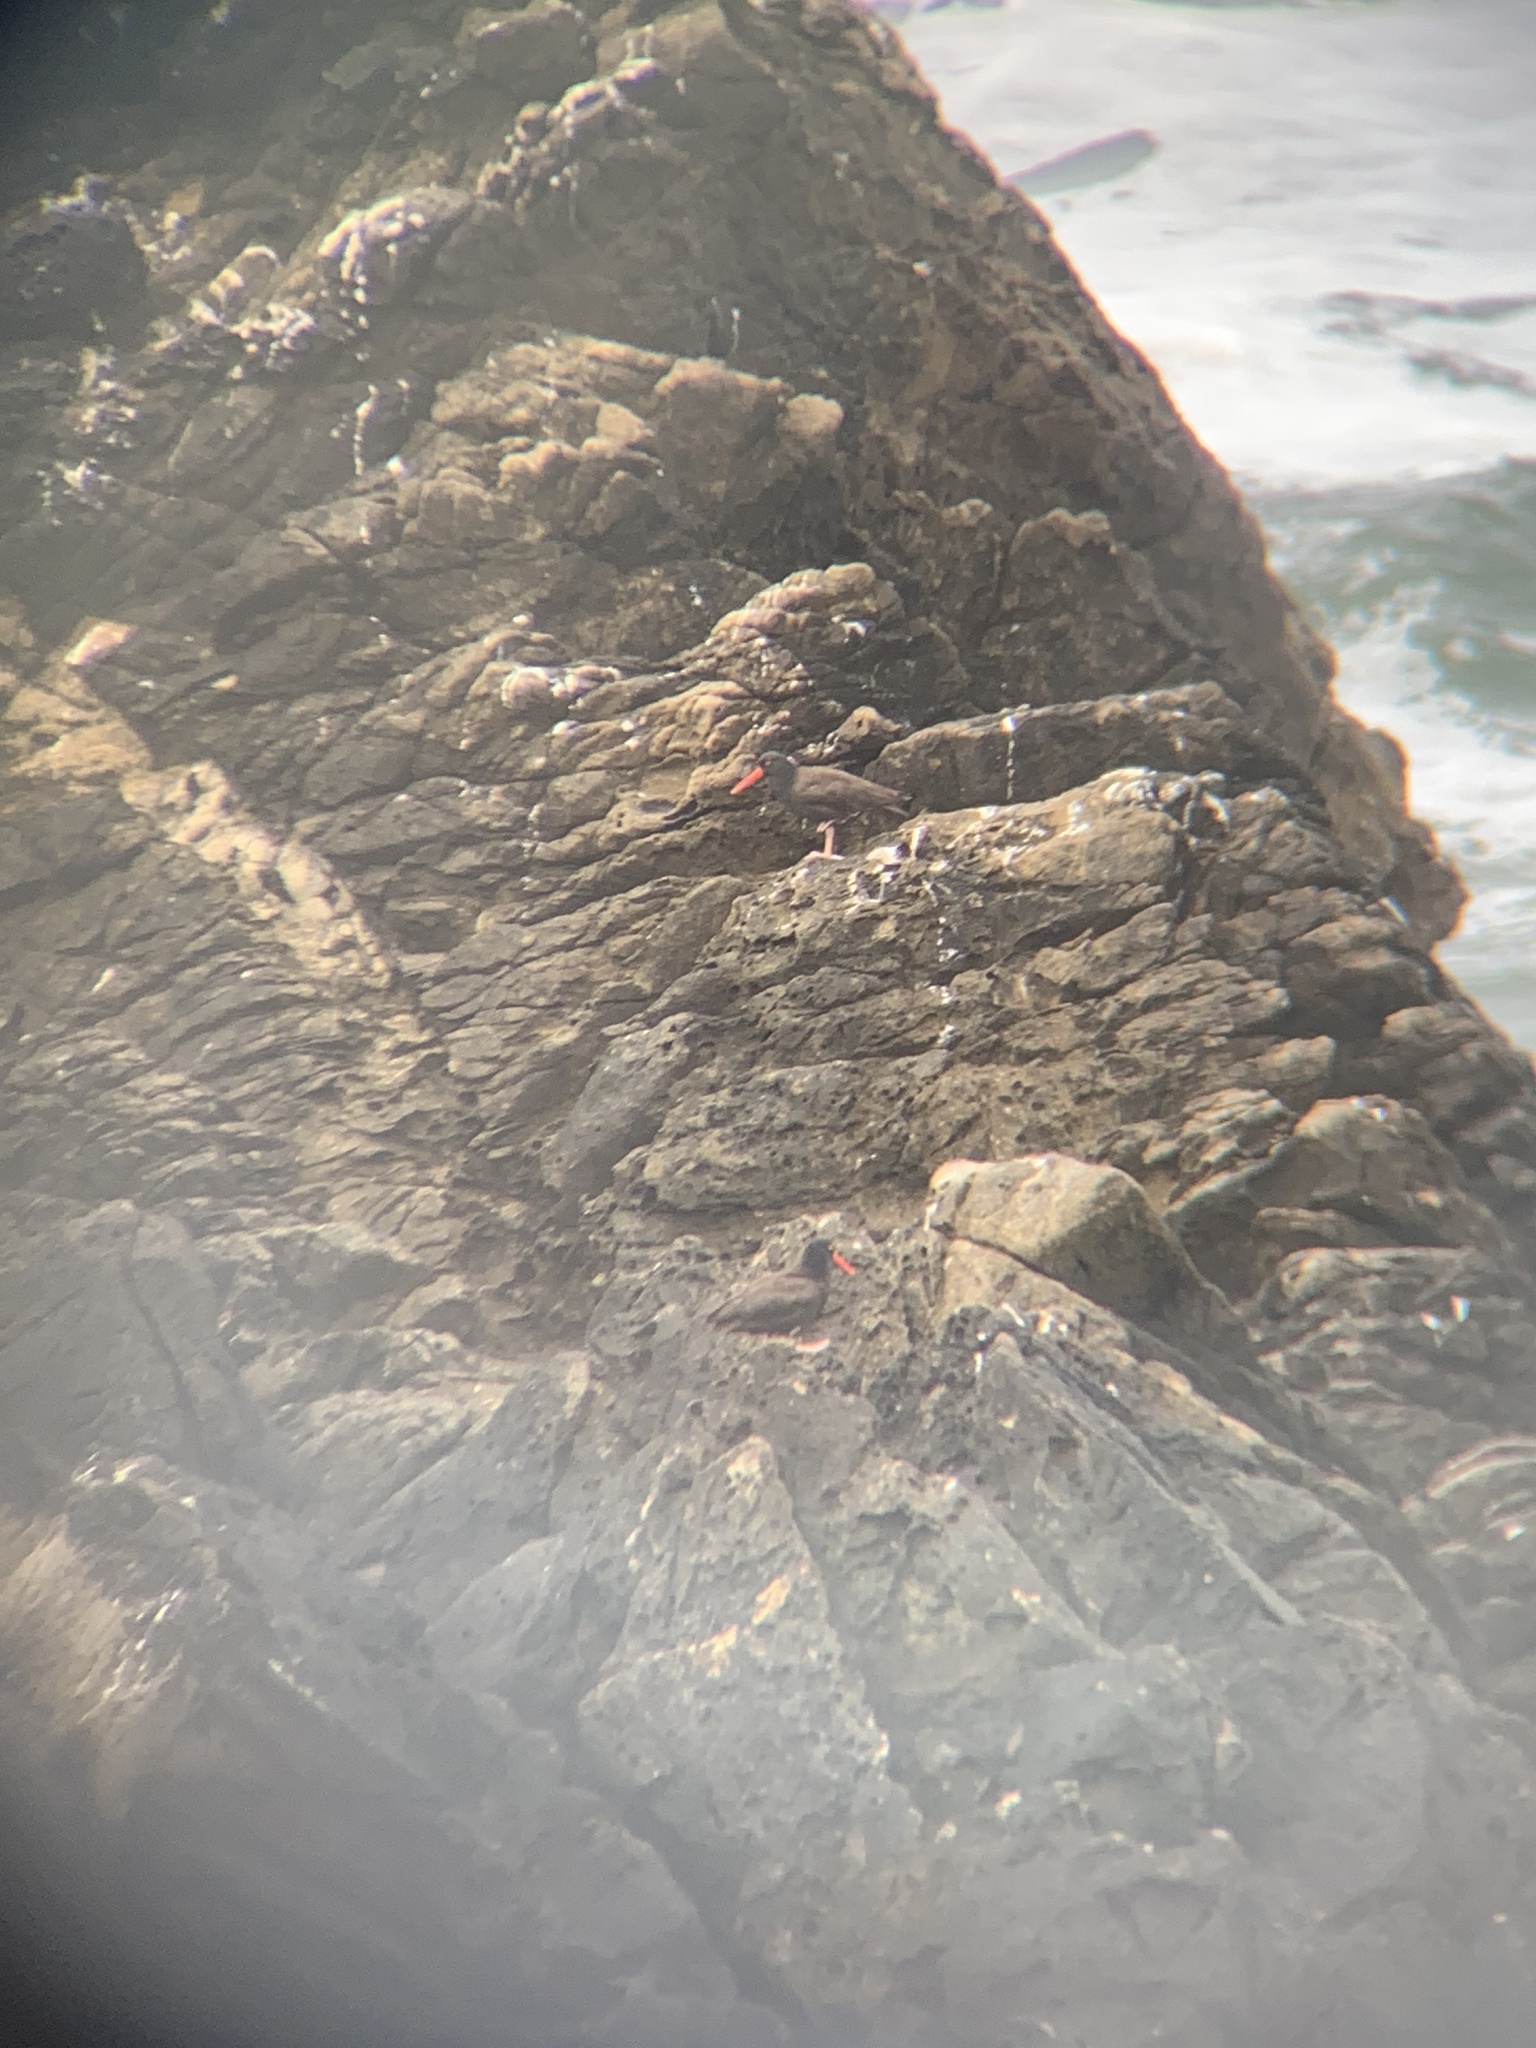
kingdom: Animalia
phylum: Chordata
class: Aves
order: Charadriiformes
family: Haematopodidae
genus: Haematopus
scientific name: Haematopus bachmani
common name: Black oystercatcher
